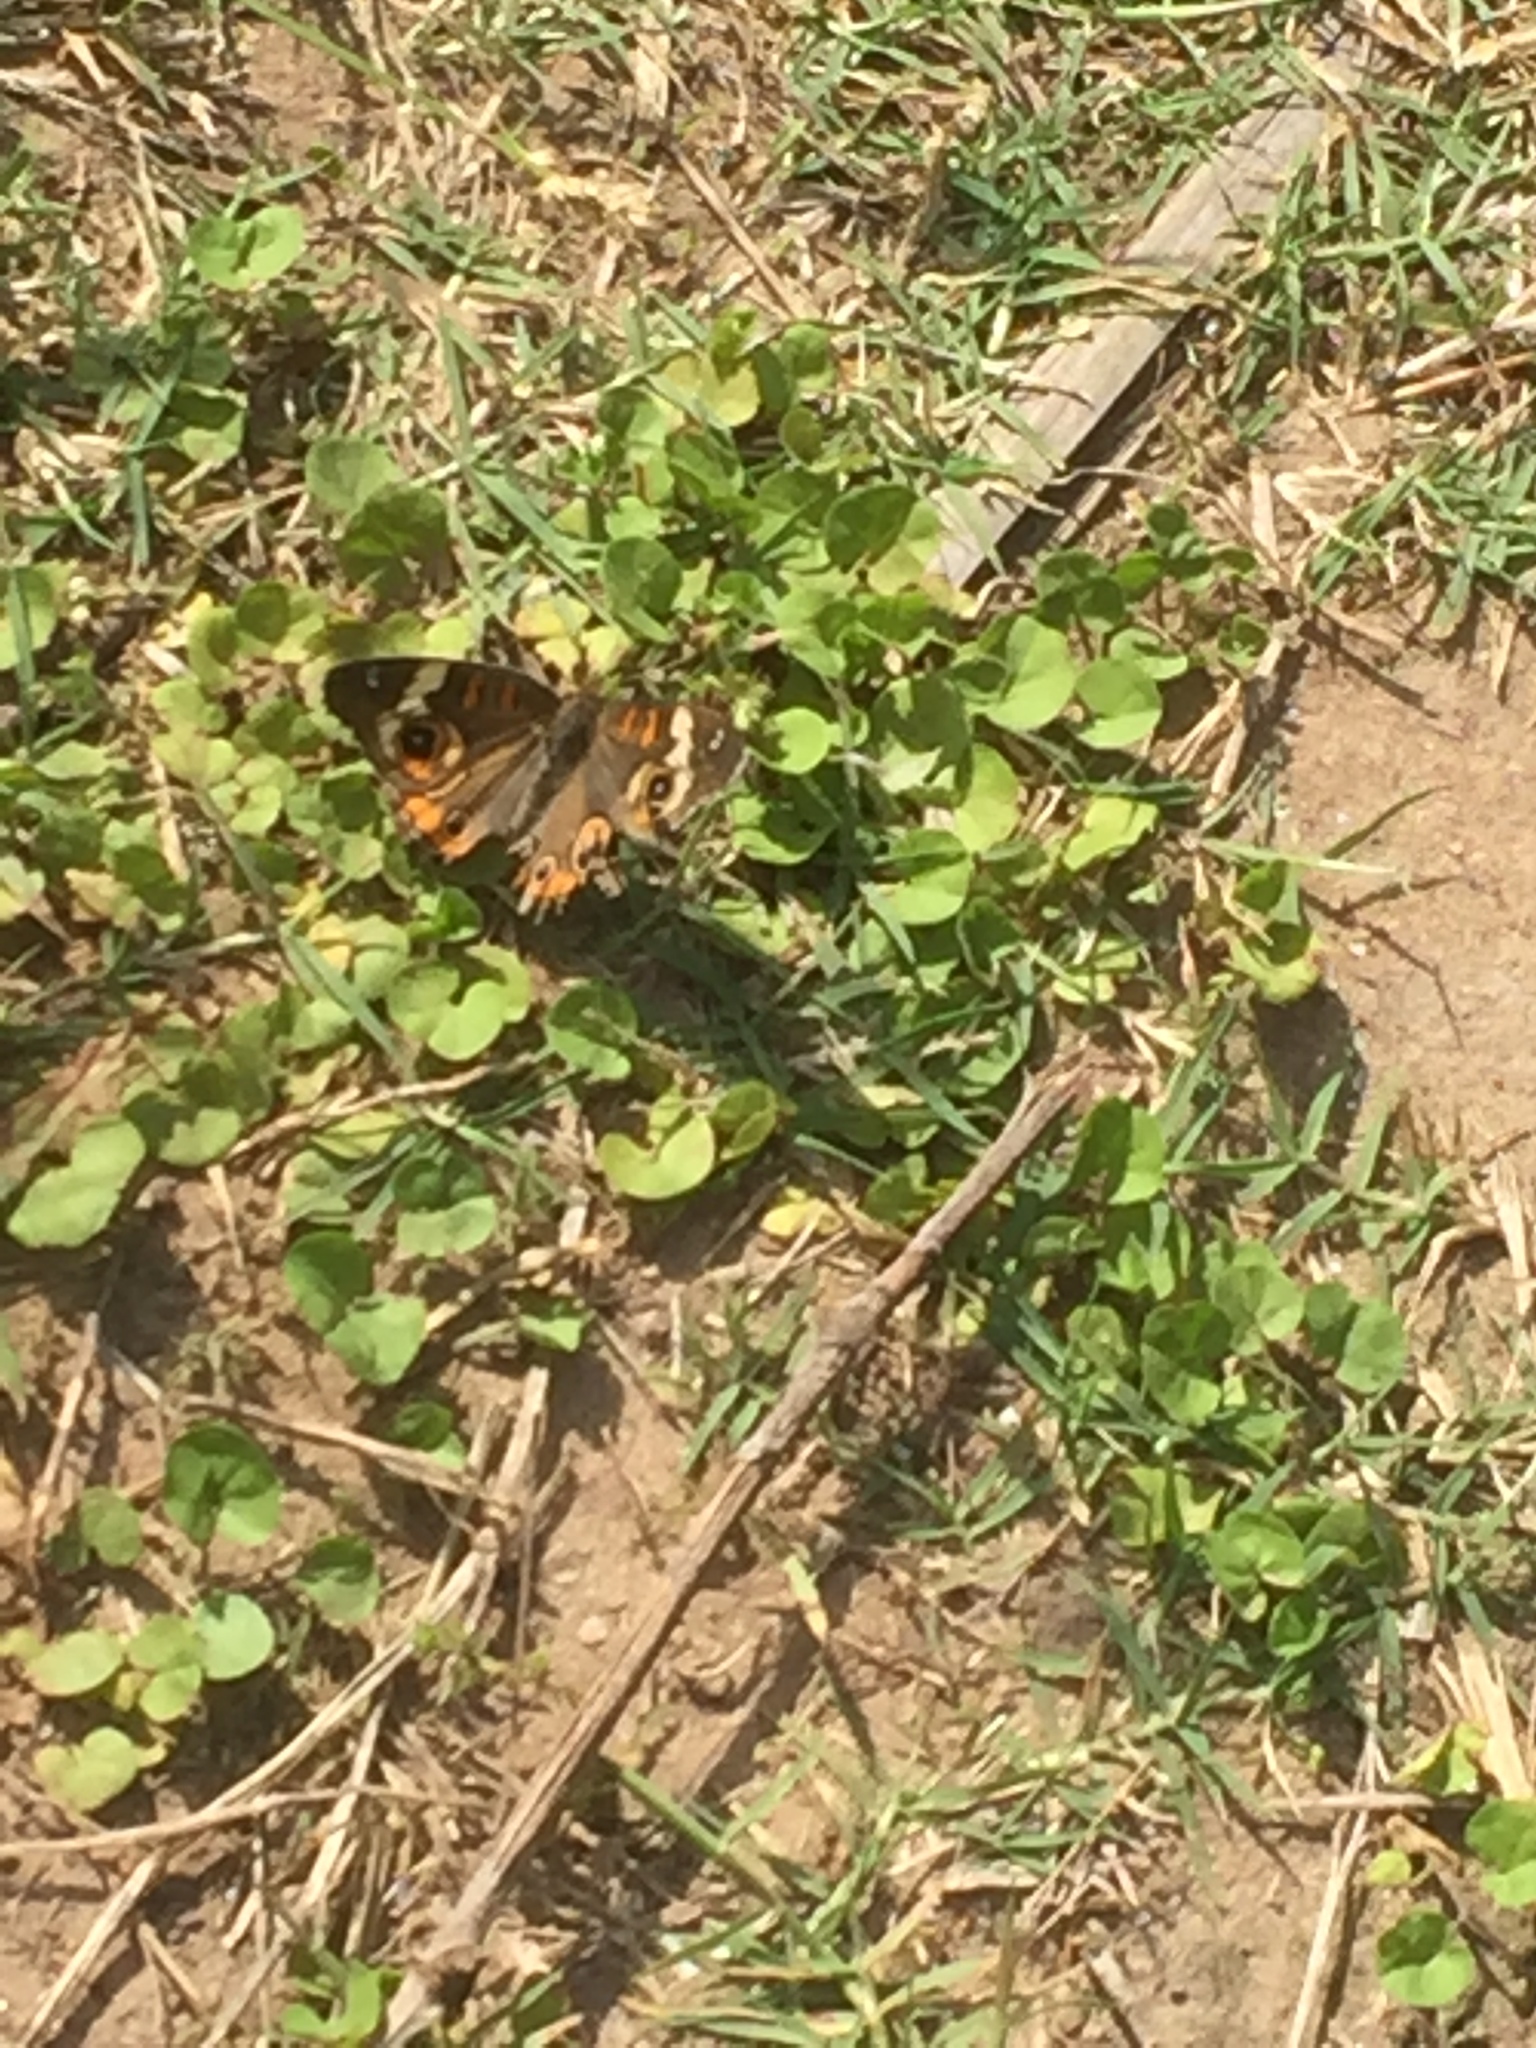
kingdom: Animalia
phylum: Arthropoda
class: Insecta
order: Lepidoptera
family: Nymphalidae
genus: Junonia
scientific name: Junonia coenia
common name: Common buckeye
